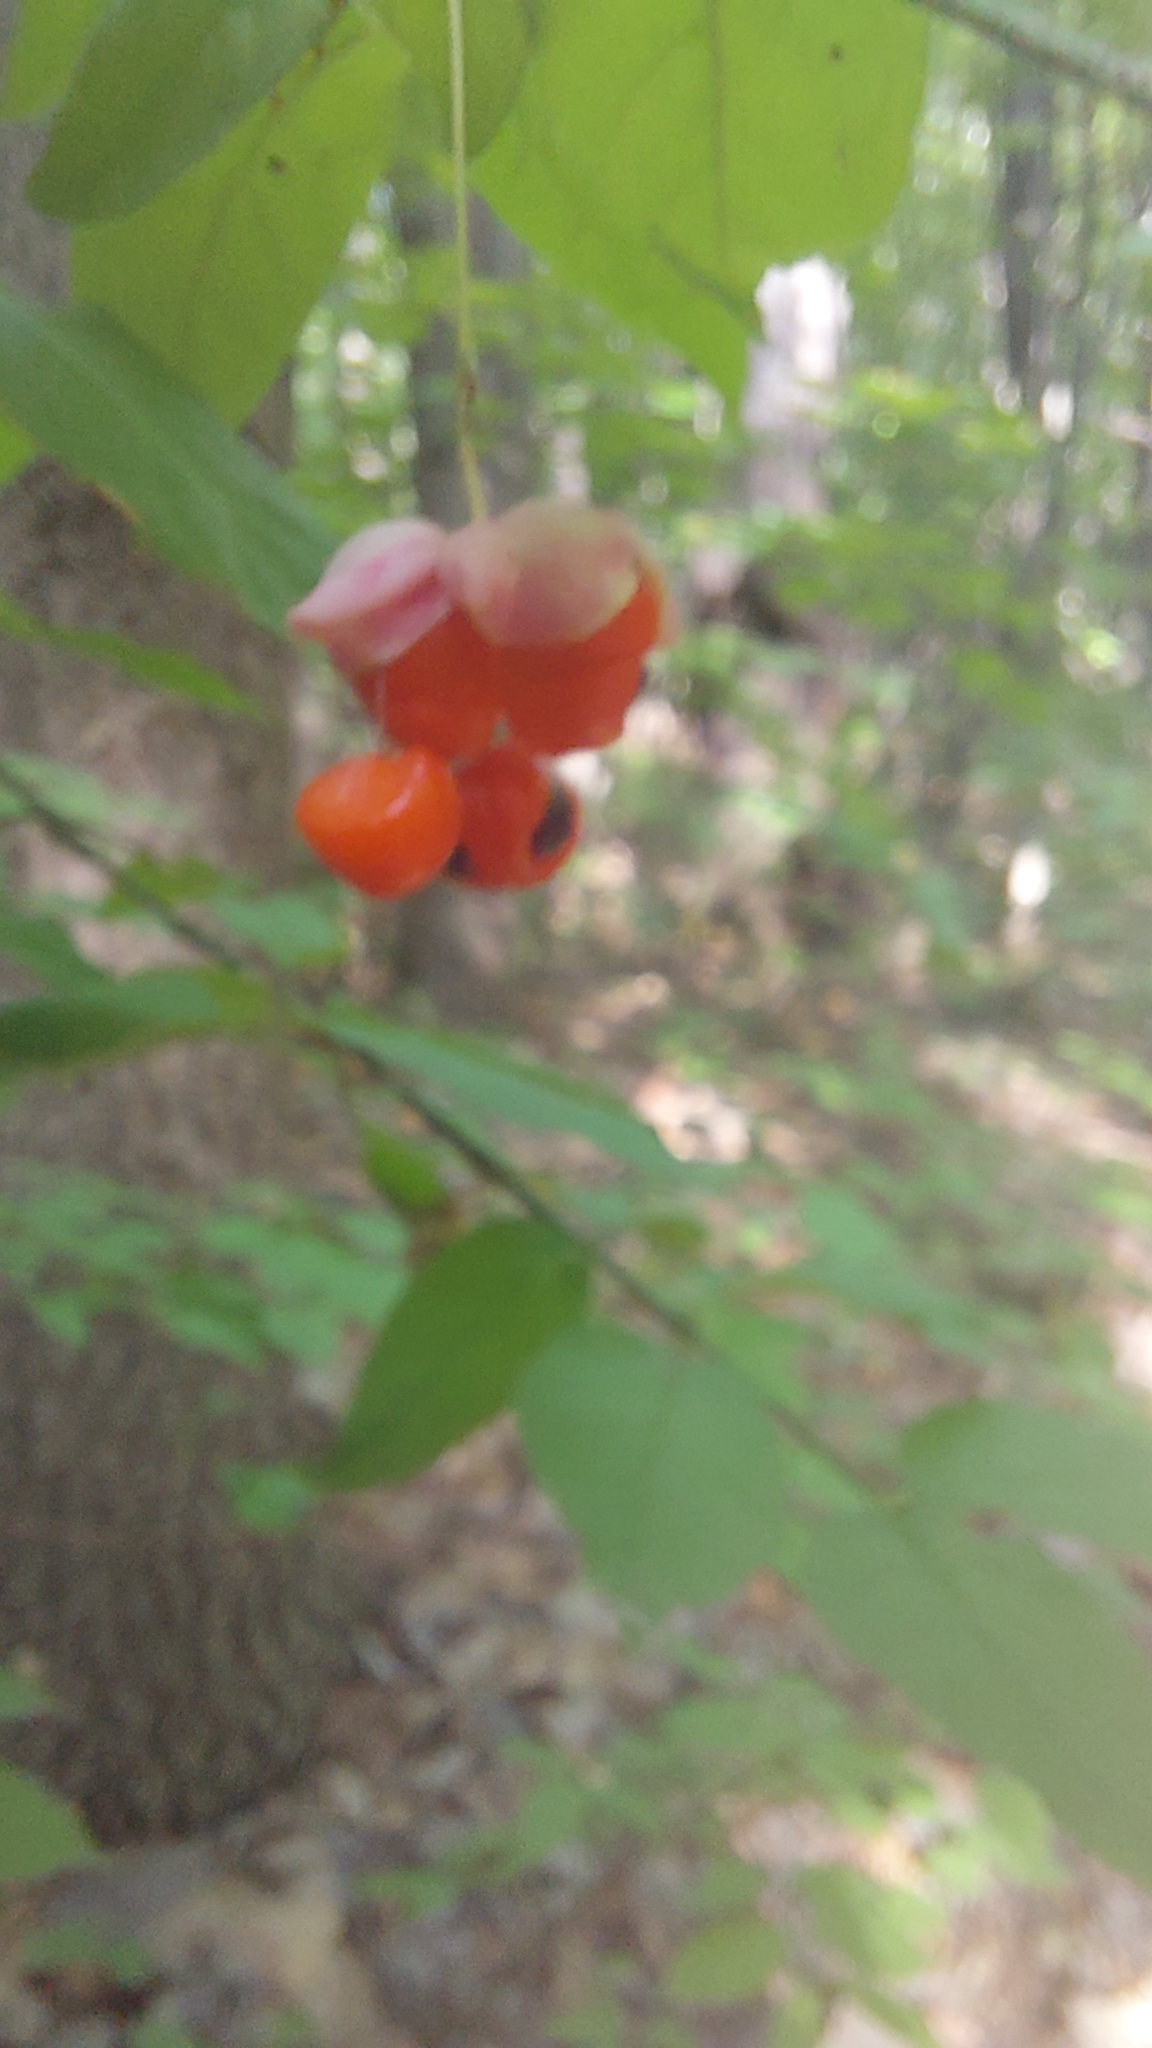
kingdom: Plantae
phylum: Tracheophyta
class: Magnoliopsida
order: Celastrales
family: Celastraceae
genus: Euonymus
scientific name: Euonymus verrucosus
